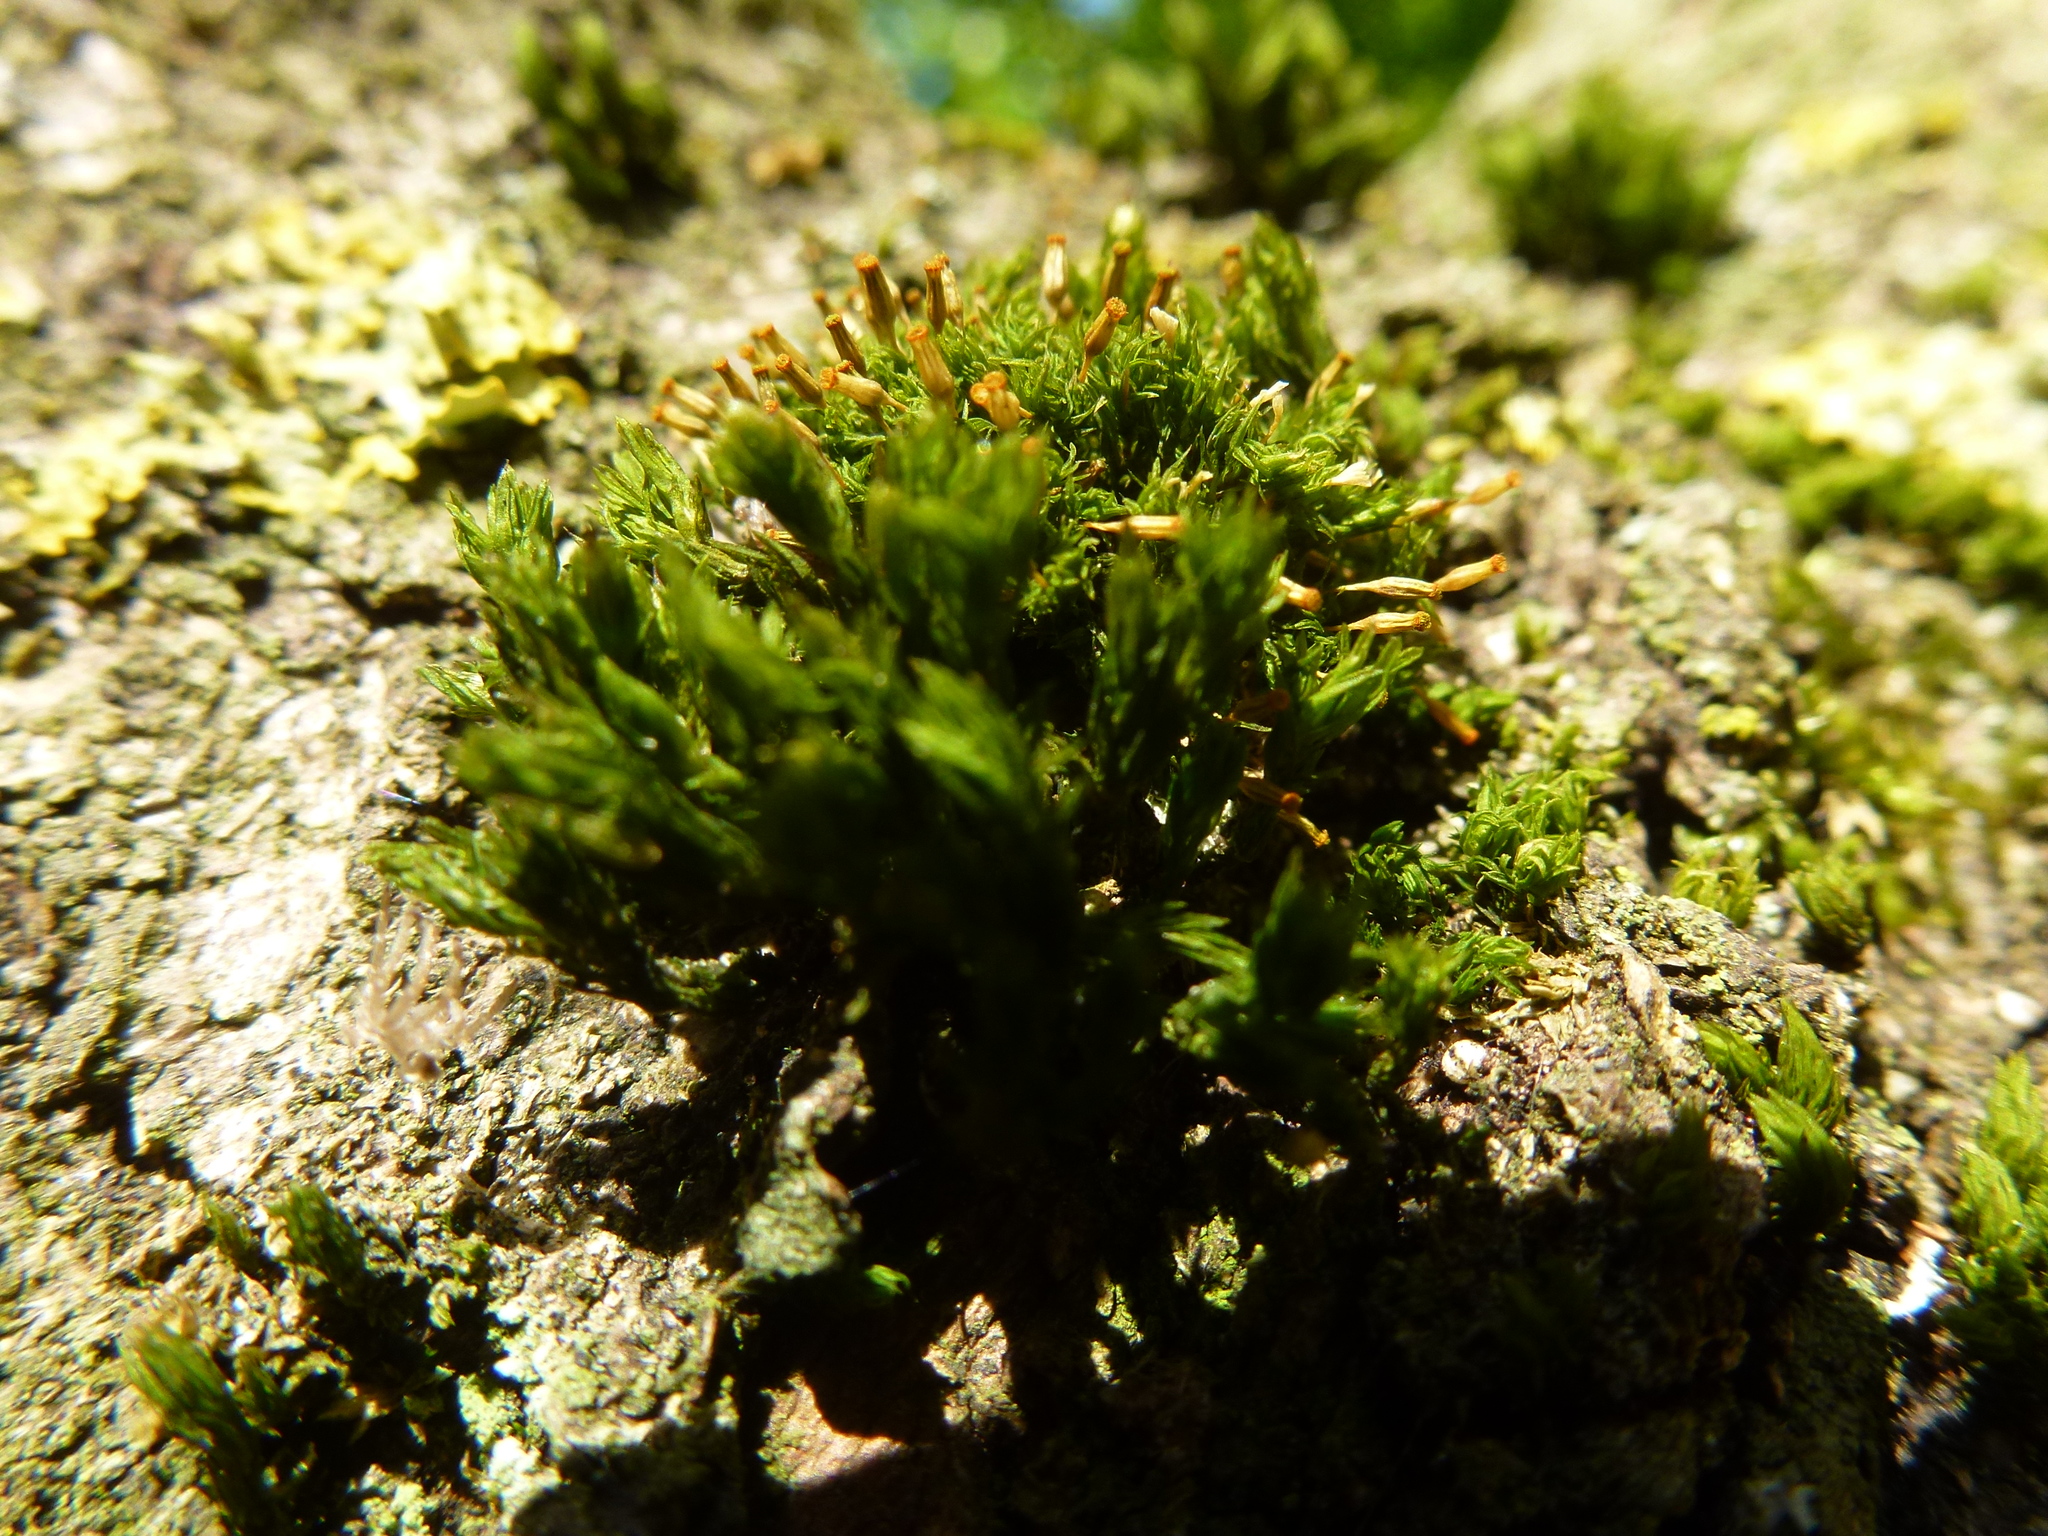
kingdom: Plantae
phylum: Bryophyta
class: Bryopsida
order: Orthotrichales
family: Orthotrichaceae
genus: Orthotrichum
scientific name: Orthotrichum pulchellum
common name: Elegant bristle-moss
